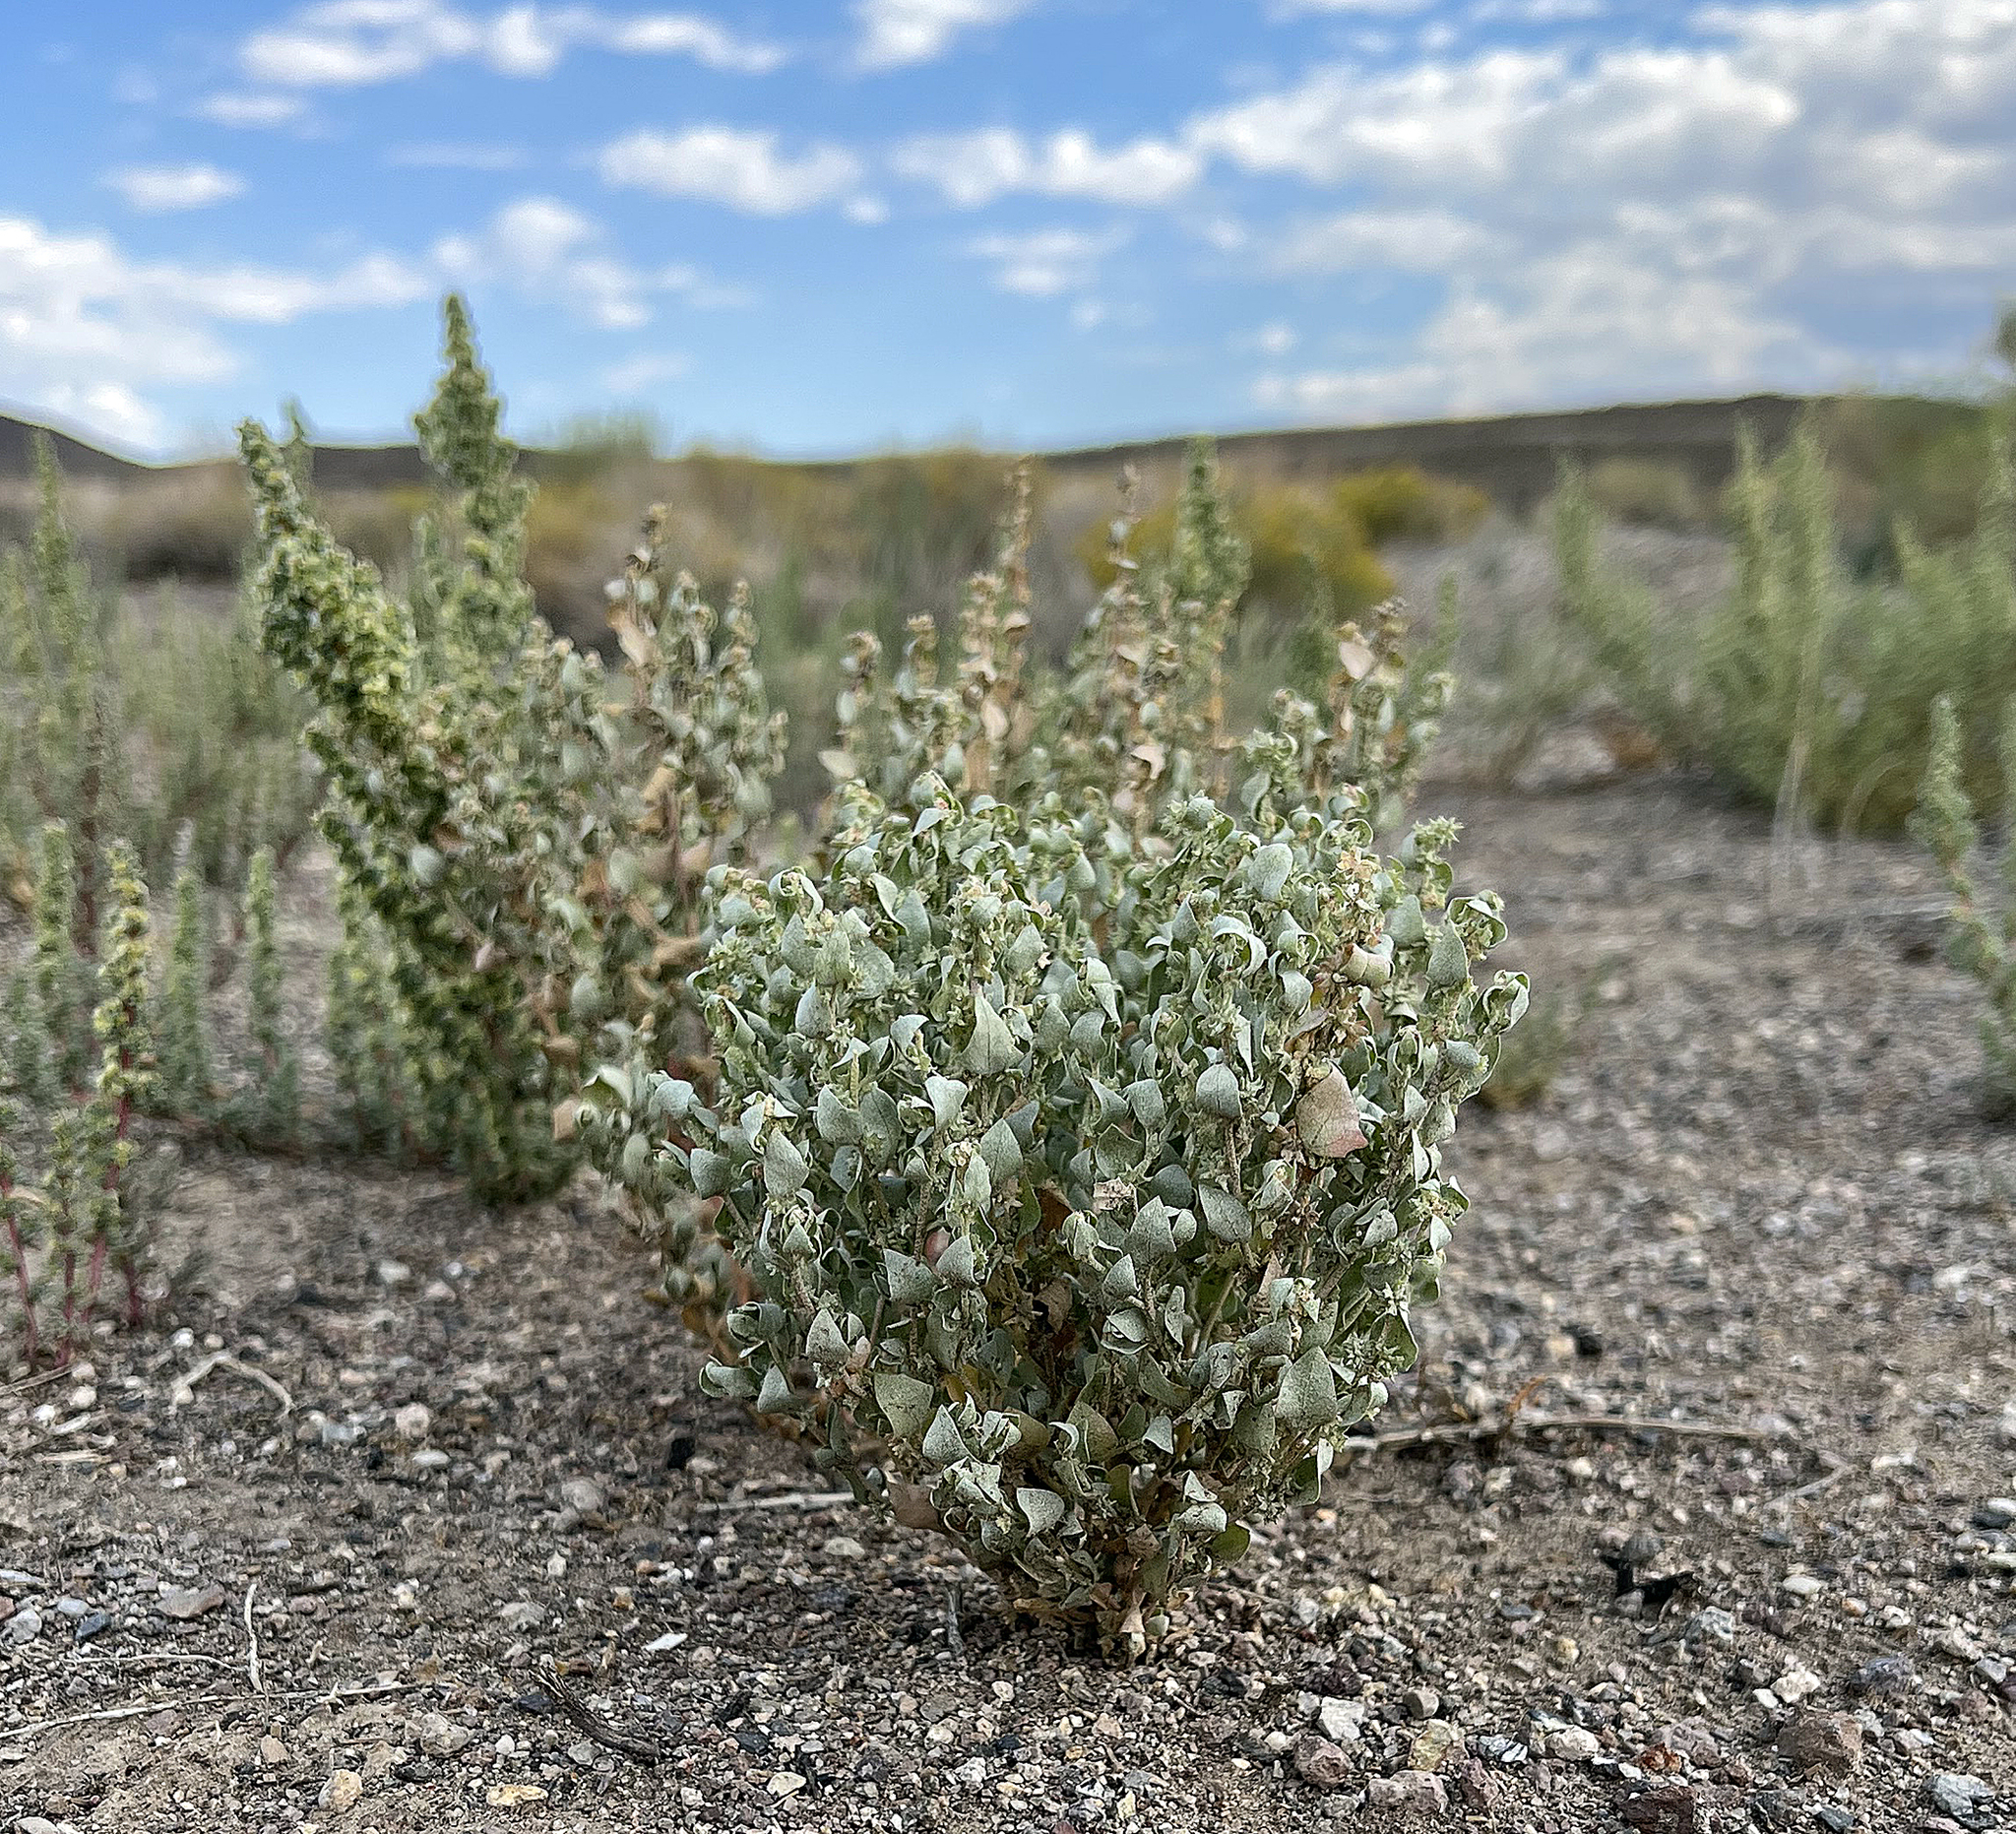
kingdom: Plantae
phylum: Tracheophyta
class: Magnoliopsida
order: Caryophyllales
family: Amaranthaceae
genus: Atriplex
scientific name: Atriplex argentea
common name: Silverscale
